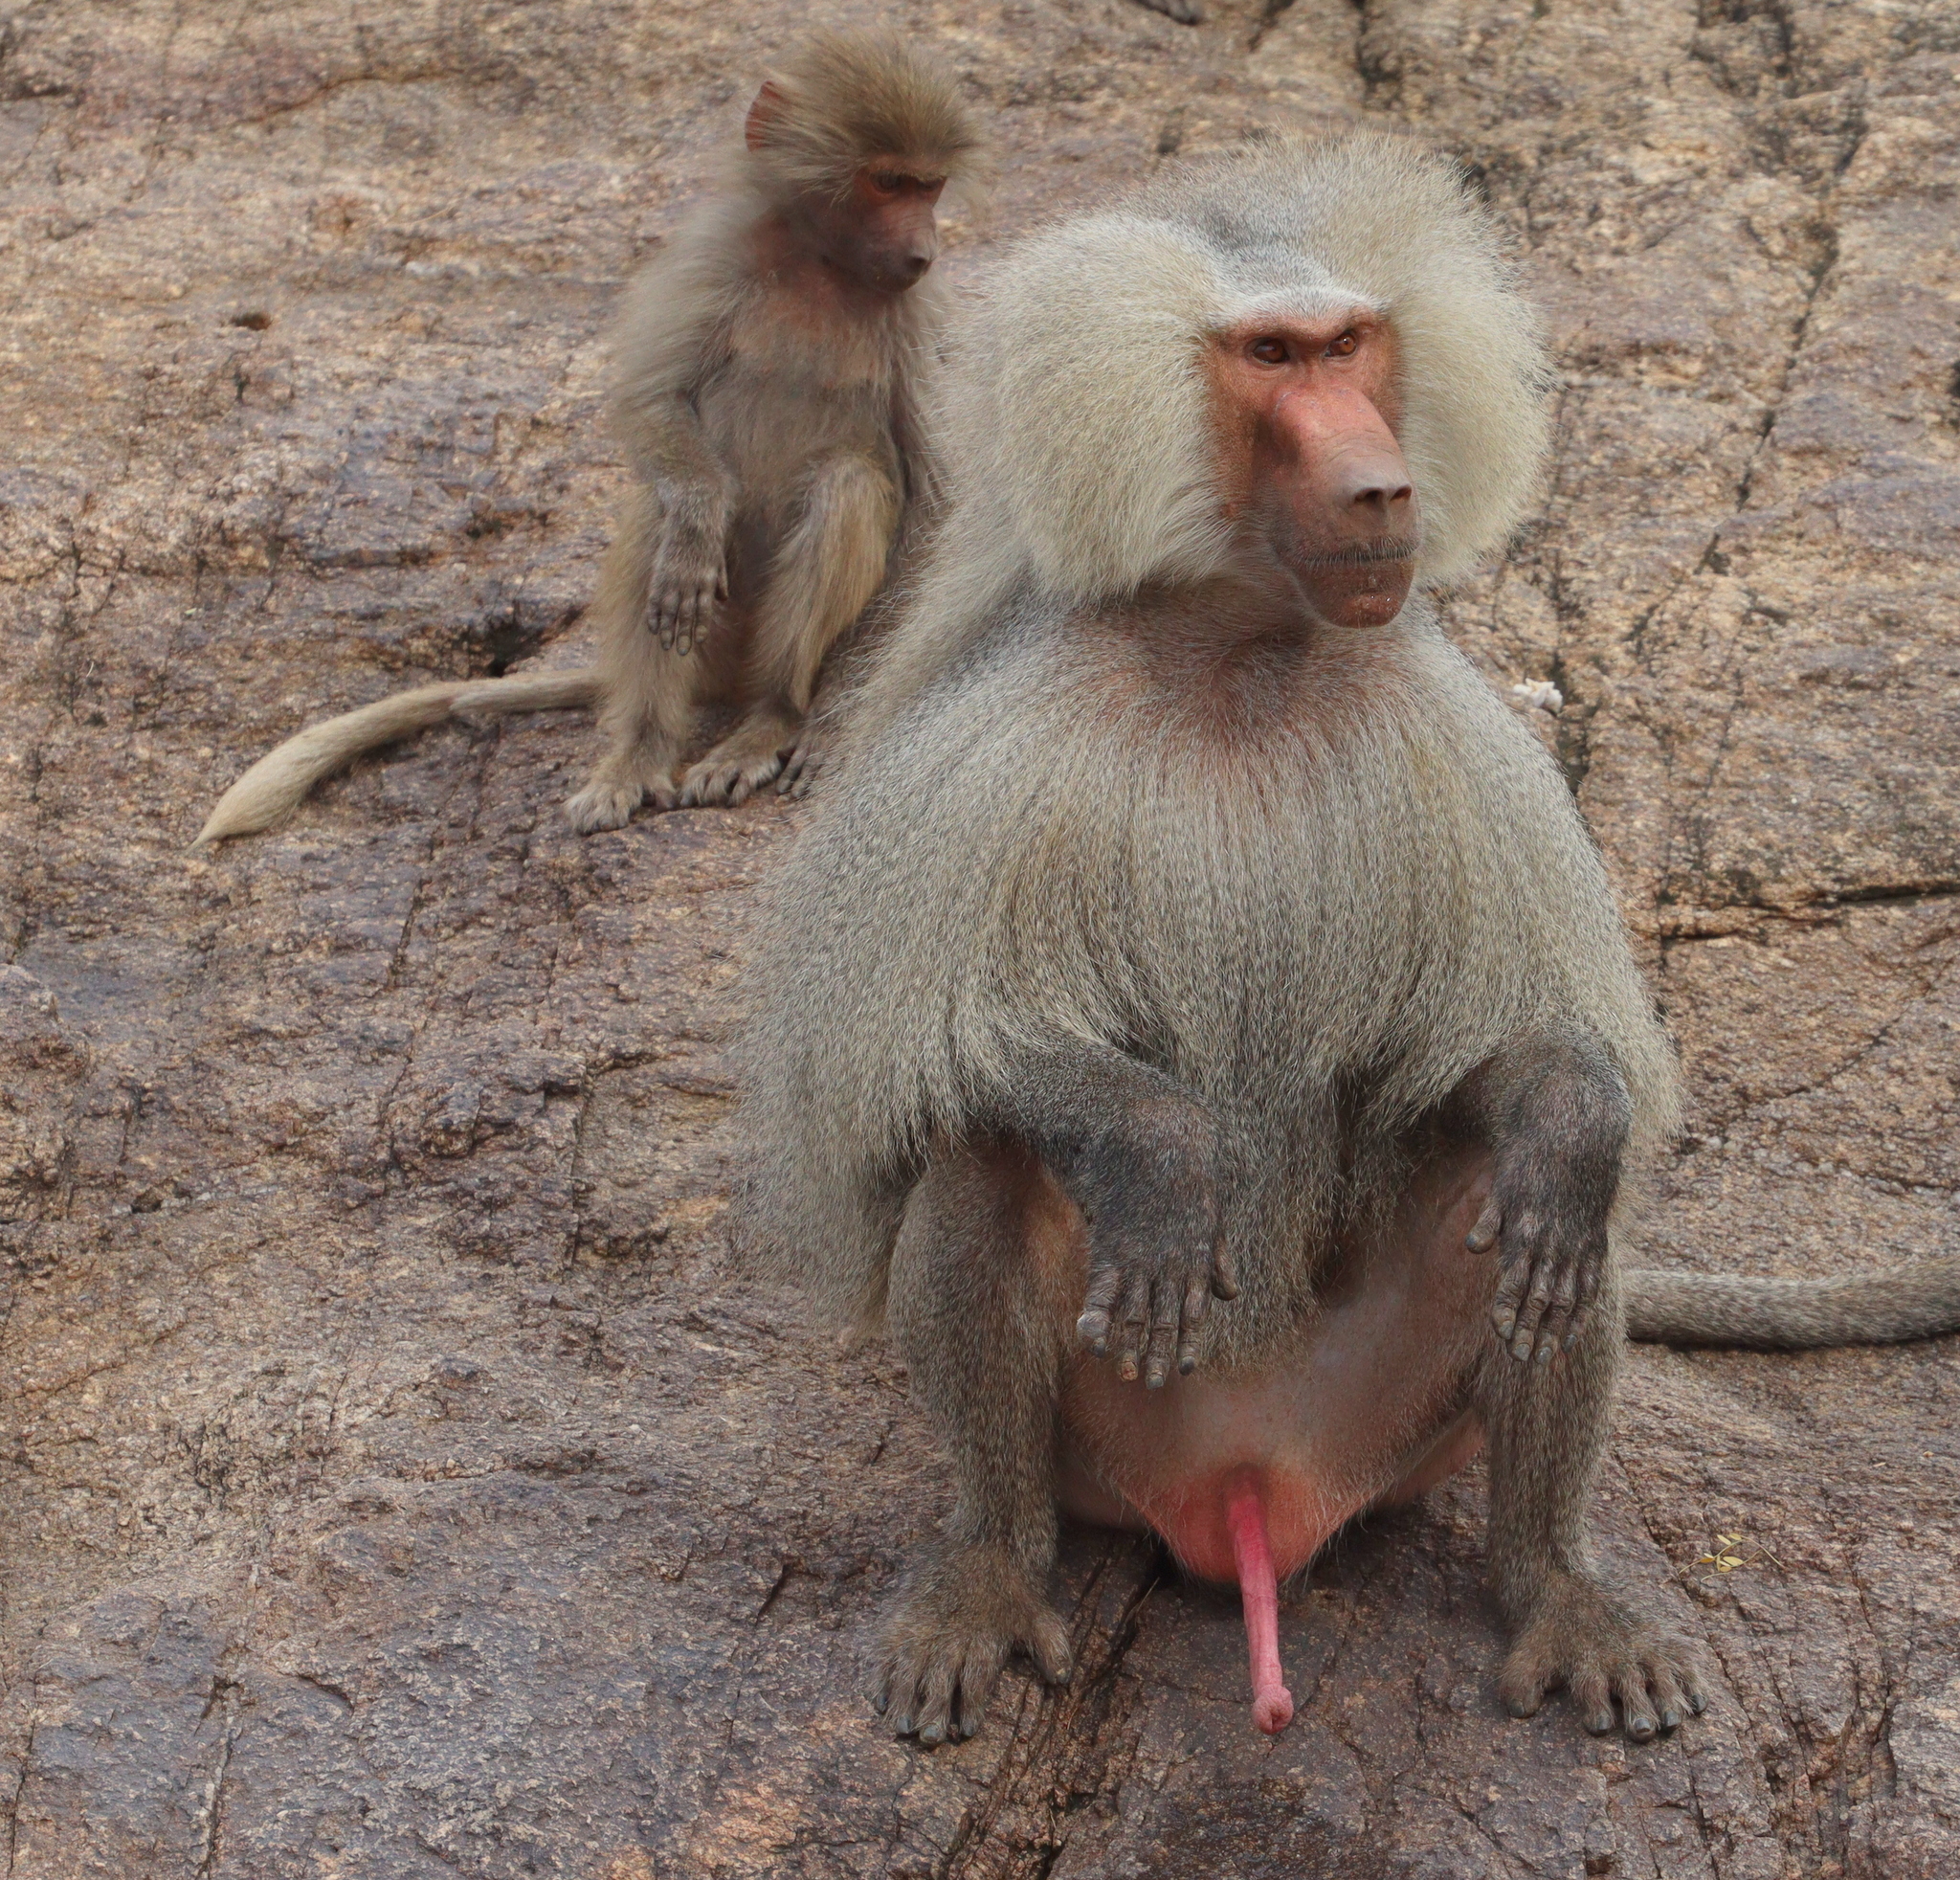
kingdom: Animalia
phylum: Chordata
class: Mammalia
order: Primates
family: Cercopithecidae
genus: Papio
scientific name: Papio hamadryas
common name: Hamadryas baboon
